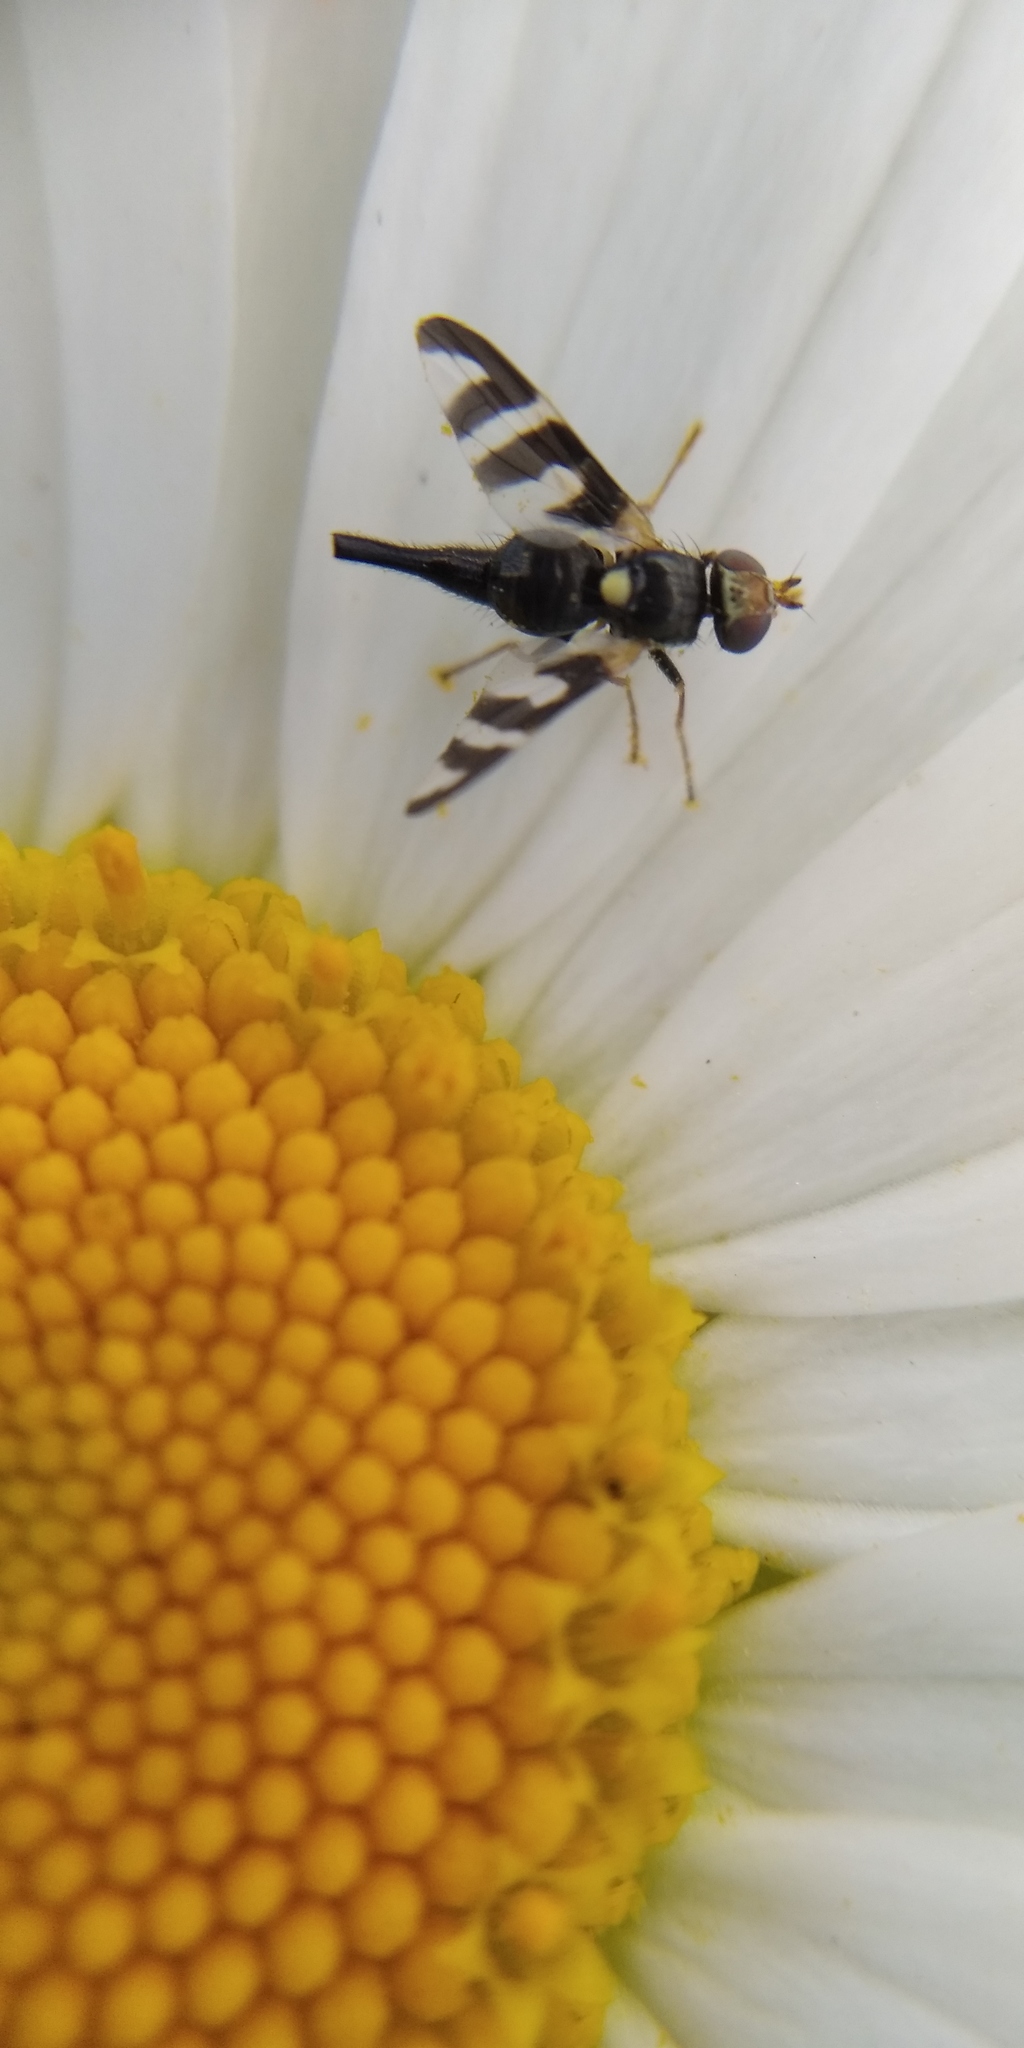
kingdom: Animalia
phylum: Arthropoda
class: Insecta
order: Diptera
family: Tephritidae
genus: Urophora
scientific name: Urophora quadrifasciata
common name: Knapweed seedhead fly
